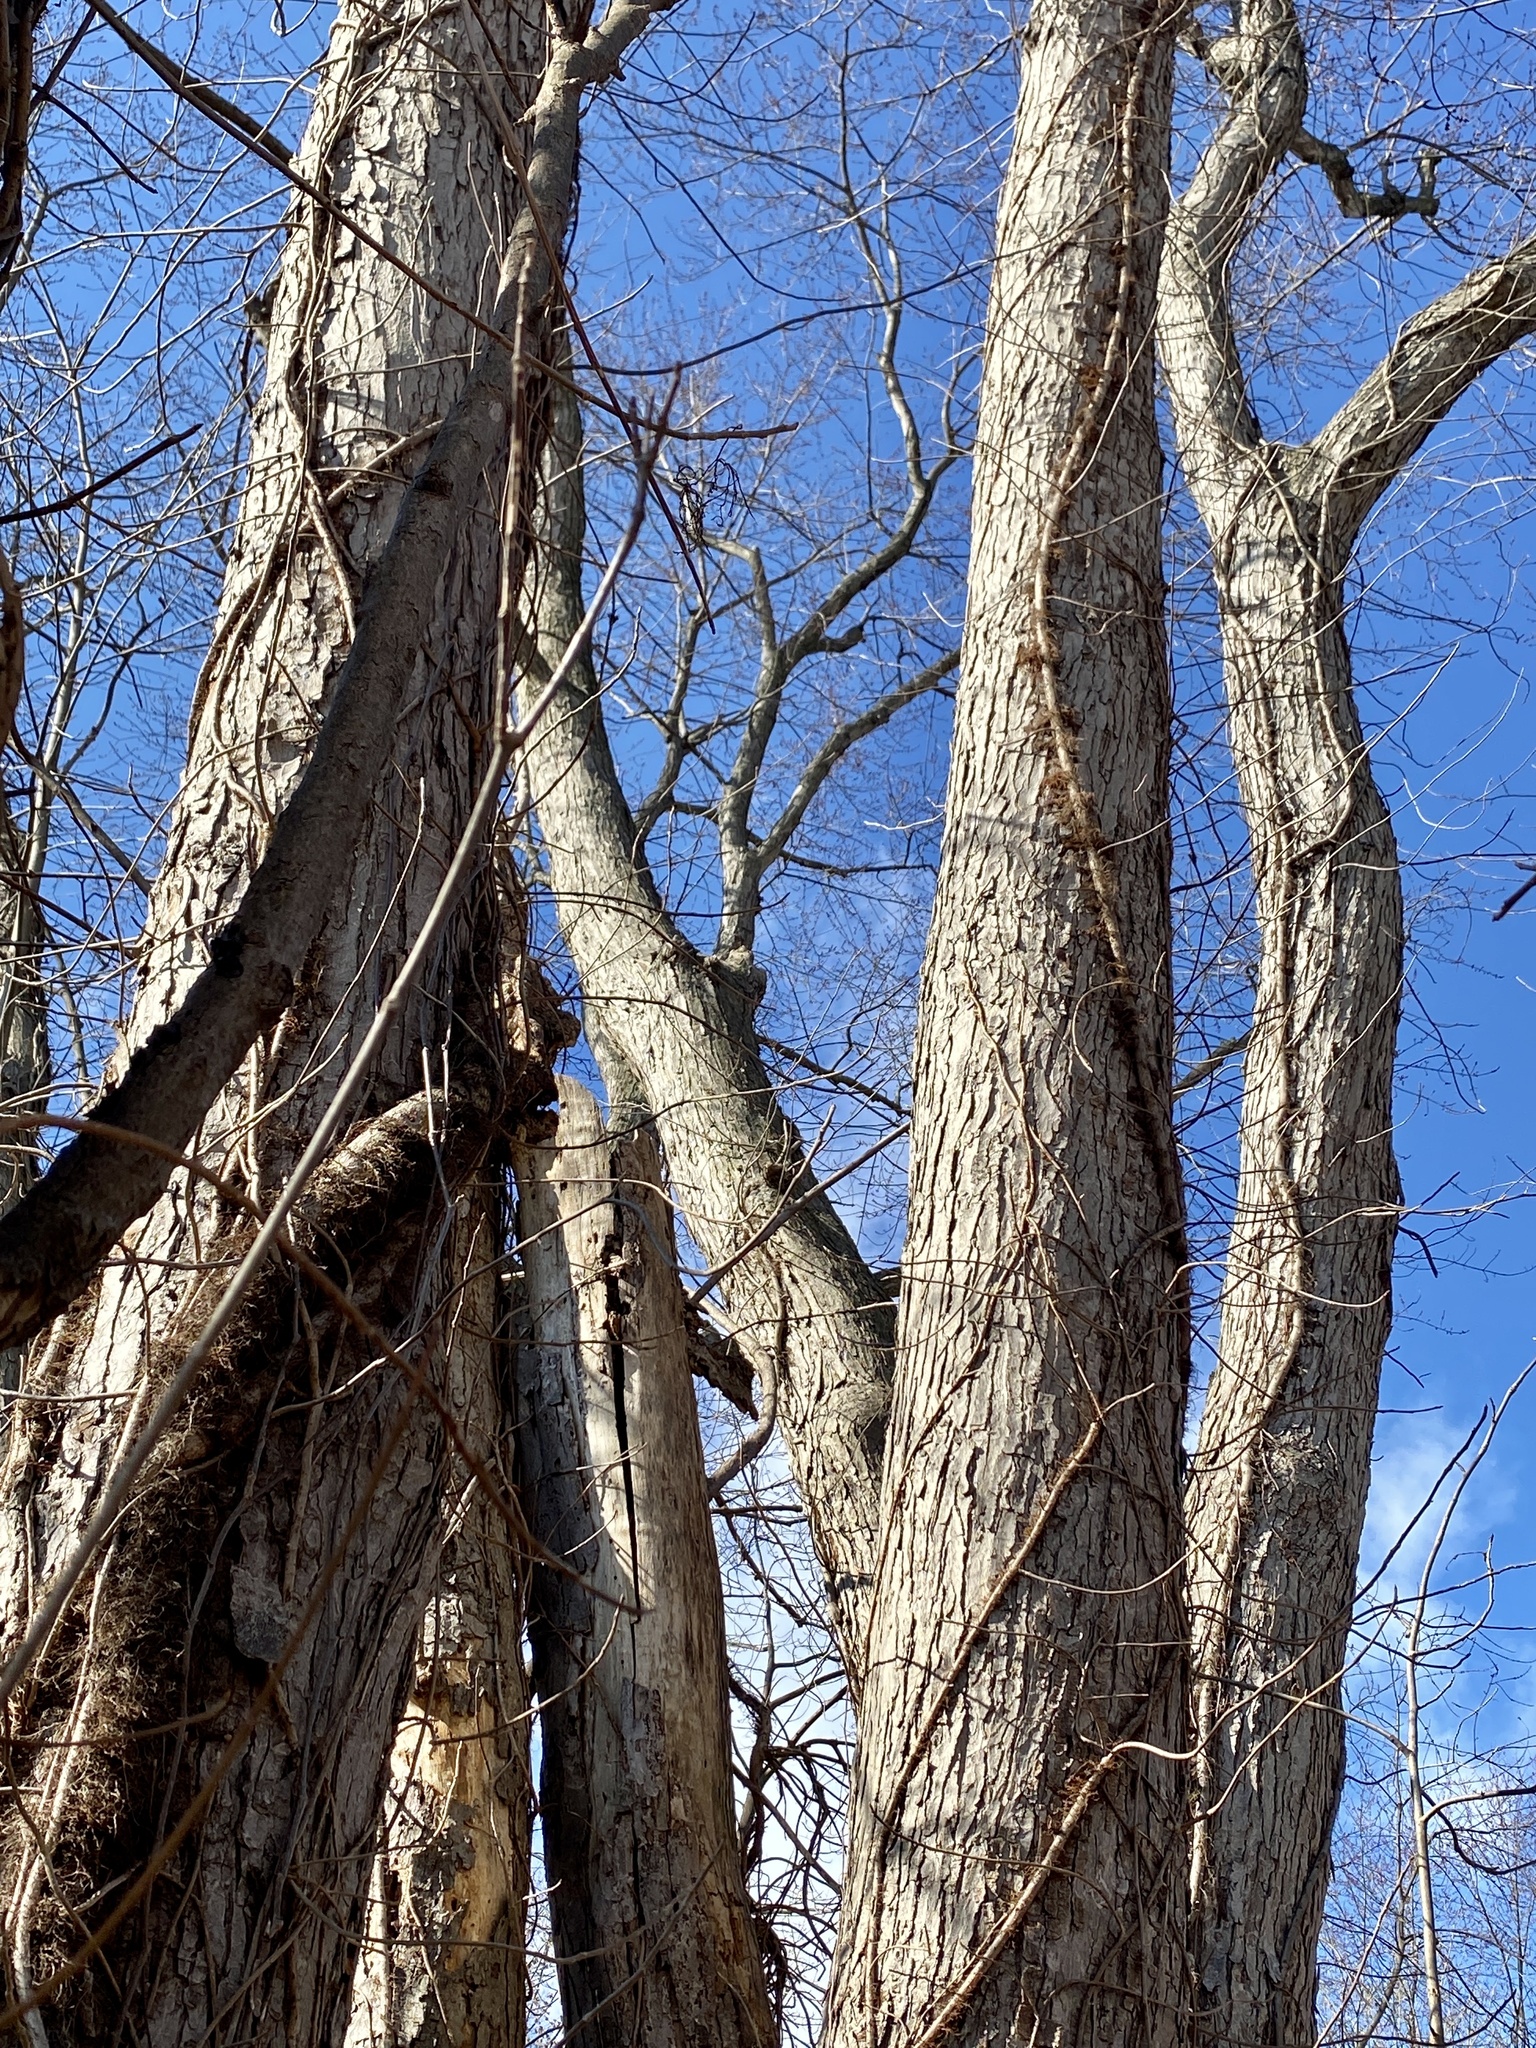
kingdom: Plantae
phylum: Tracheophyta
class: Magnoliopsida
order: Sapindales
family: Sapindaceae
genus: Acer
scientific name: Acer saccharinum
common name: Silver maple
